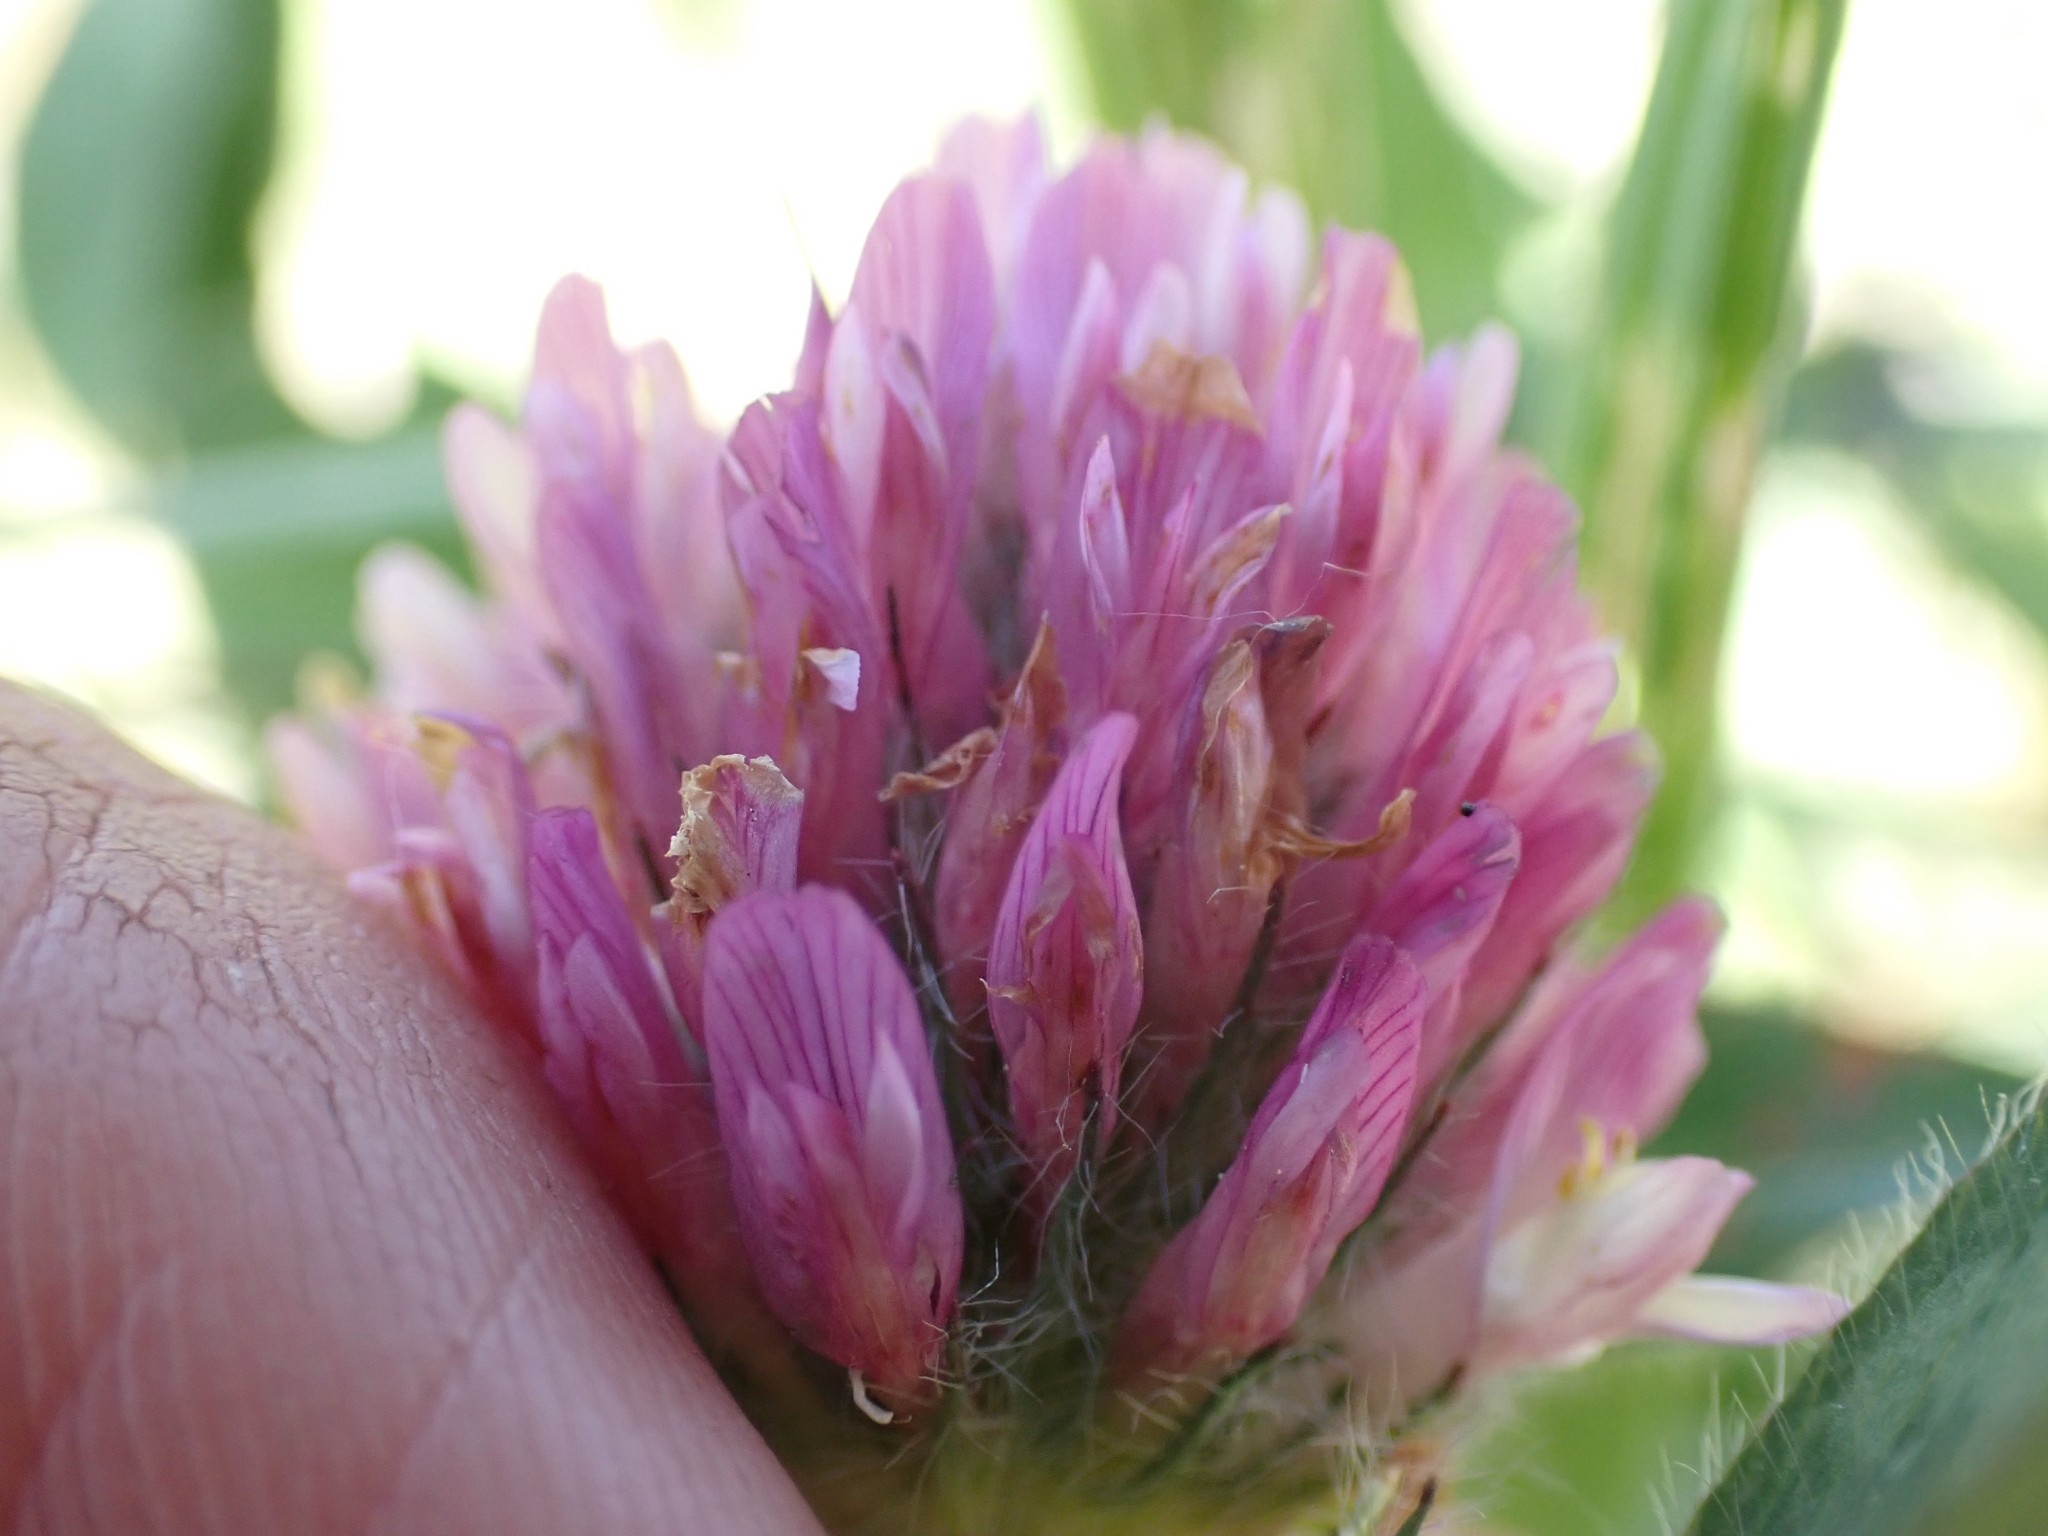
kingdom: Plantae
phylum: Tracheophyta
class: Magnoliopsida
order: Fabales
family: Fabaceae
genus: Trifolium
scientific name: Trifolium pratense
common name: Red clover
